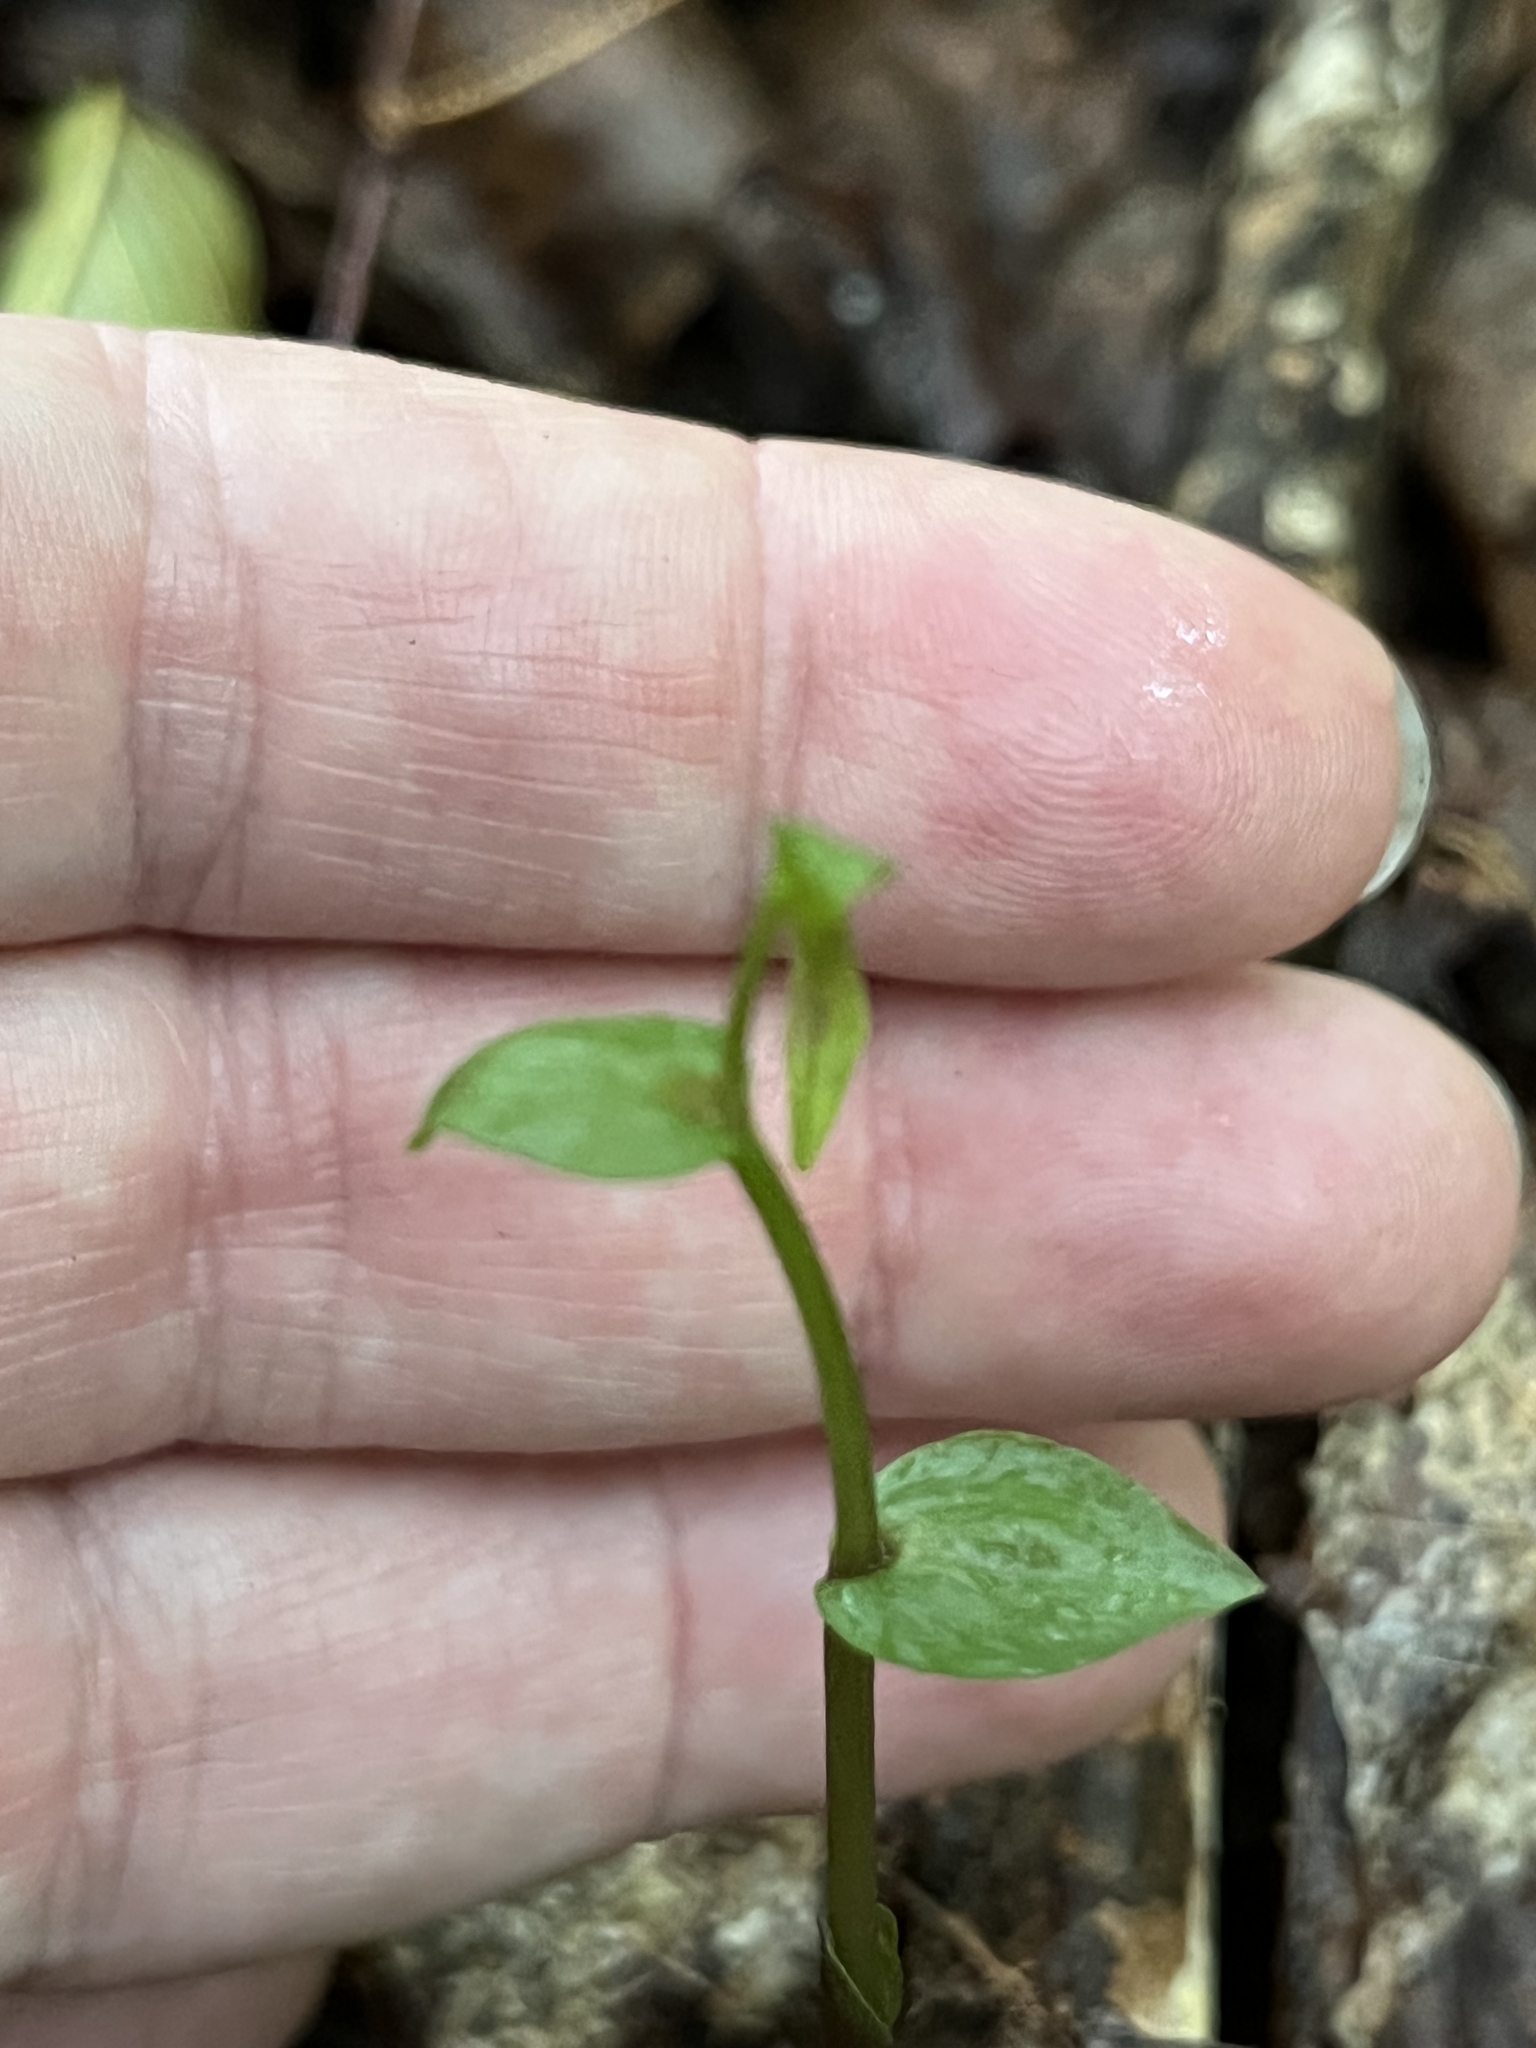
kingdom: Plantae
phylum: Tracheophyta
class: Liliopsida
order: Asparagales
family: Orchidaceae
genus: Triphora
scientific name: Triphora trianthophoros
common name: Three birds orchid
